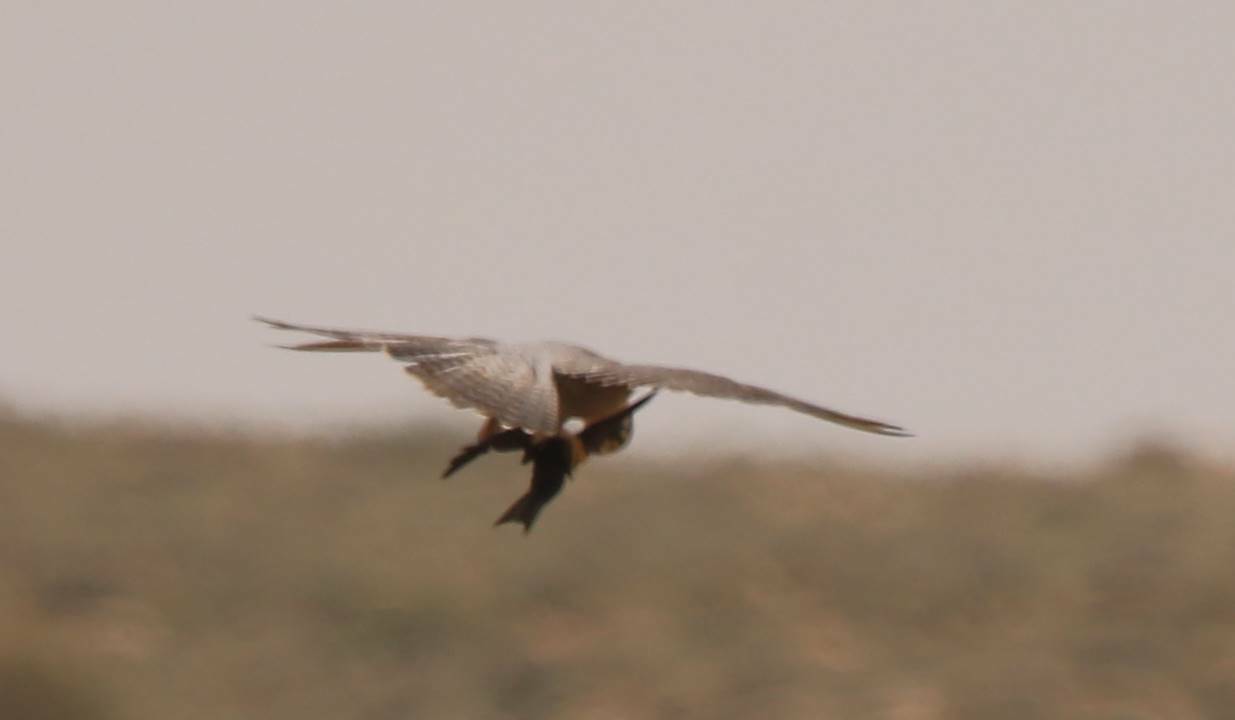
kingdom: Animalia
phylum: Chordata
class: Aves
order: Falconiformes
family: Falconidae
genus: Falco
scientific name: Falco biarmicus
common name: Lanner falcon
